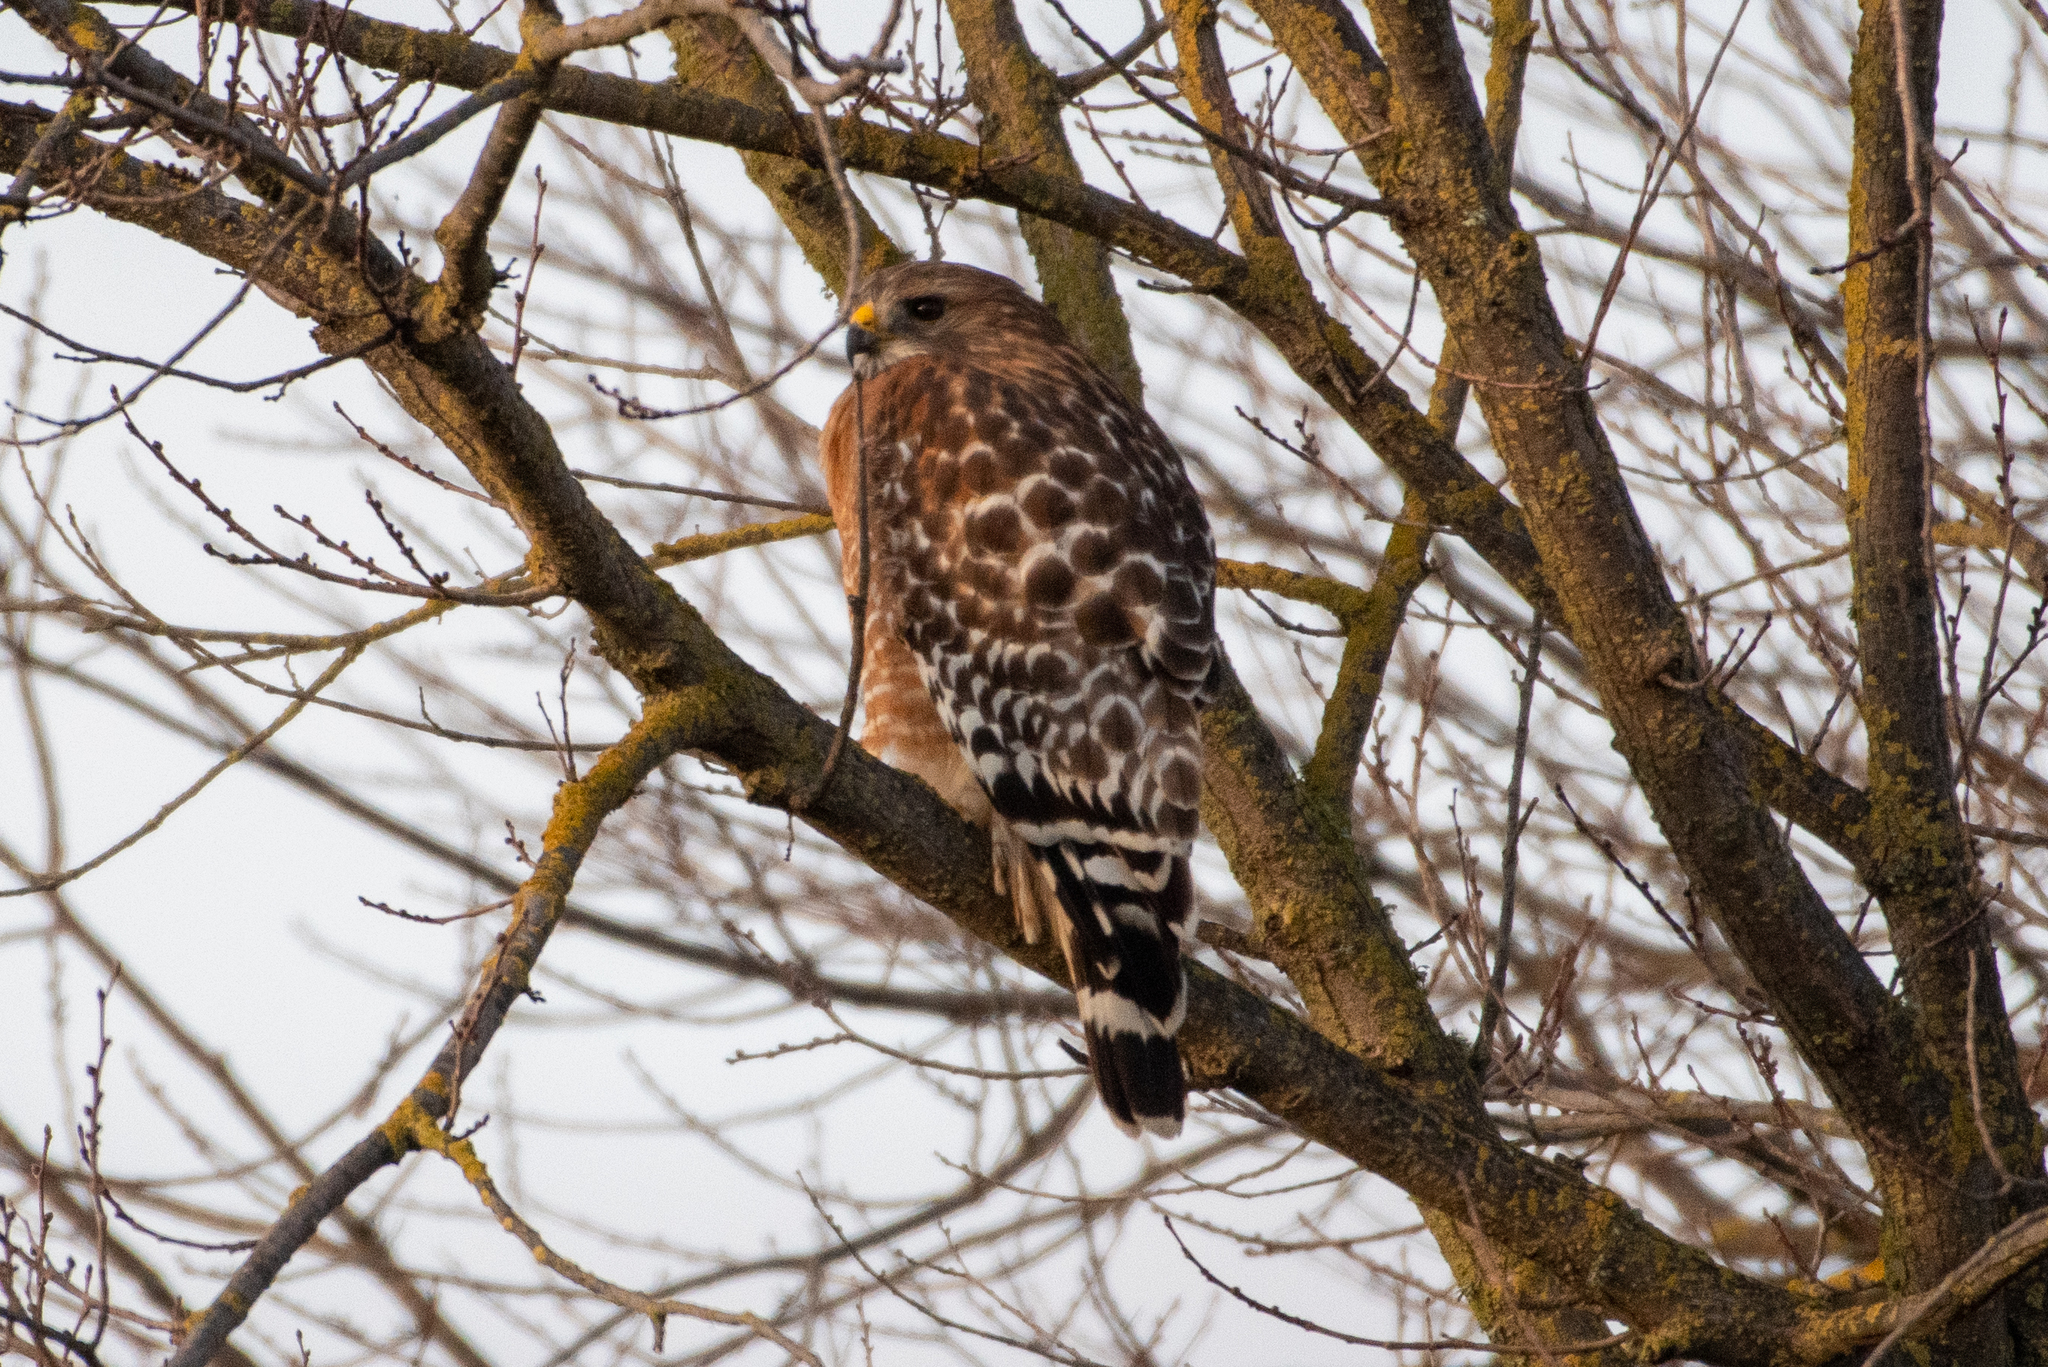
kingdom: Animalia
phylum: Chordata
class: Aves
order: Accipitriformes
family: Accipitridae
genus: Buteo
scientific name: Buteo lineatus
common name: Red-shouldered hawk
